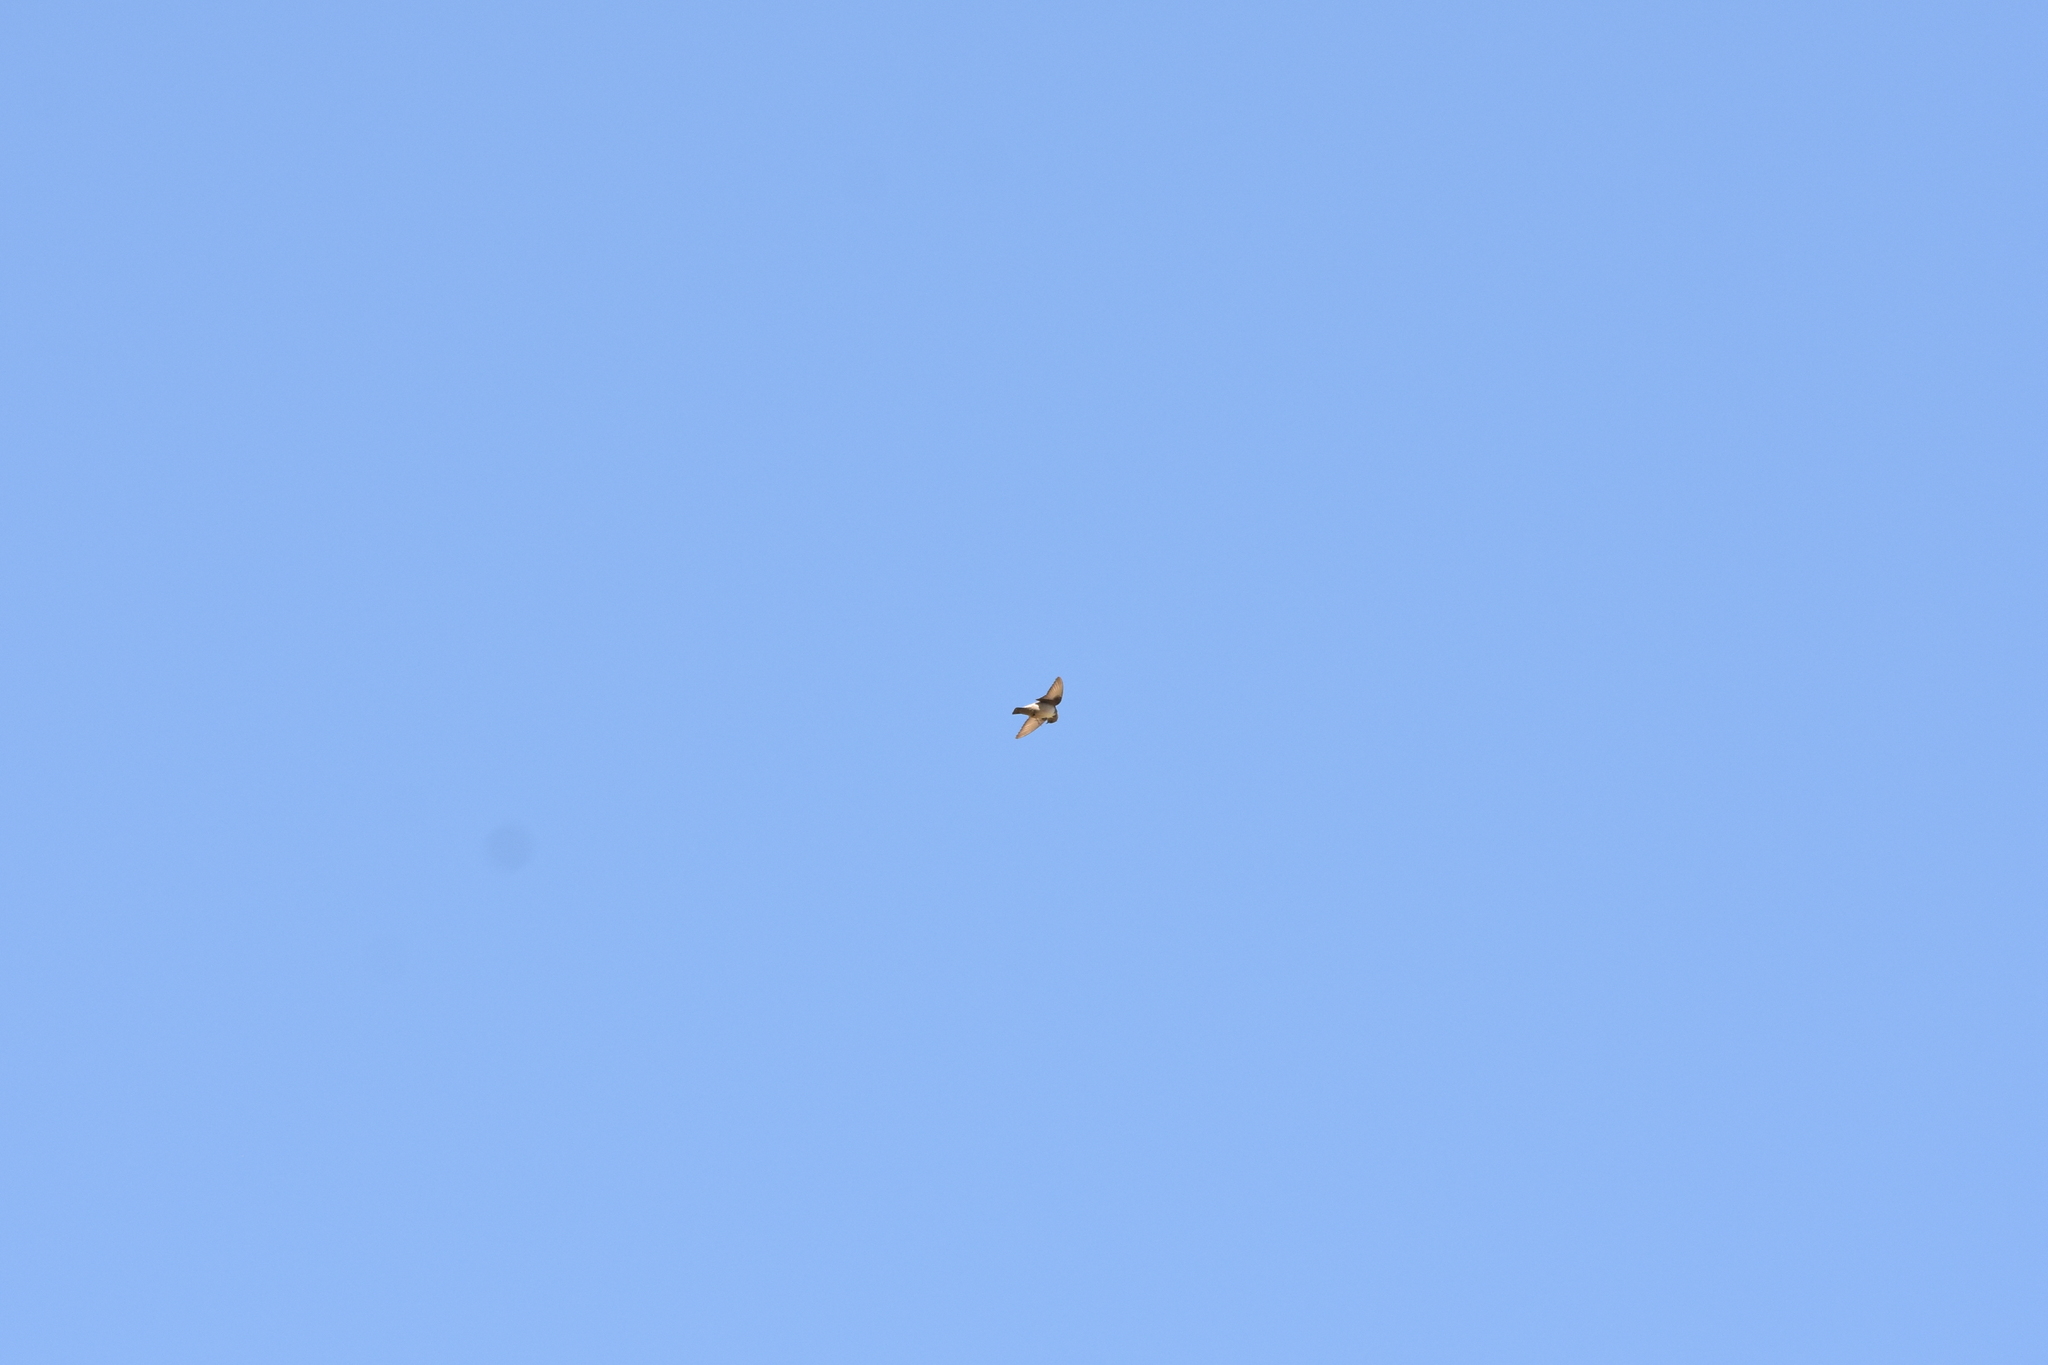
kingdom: Animalia
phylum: Chordata
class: Aves
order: Passeriformes
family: Hirundinidae
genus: Ptyonoprogne
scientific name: Ptyonoprogne rupestris
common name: Eurasian crag martin
